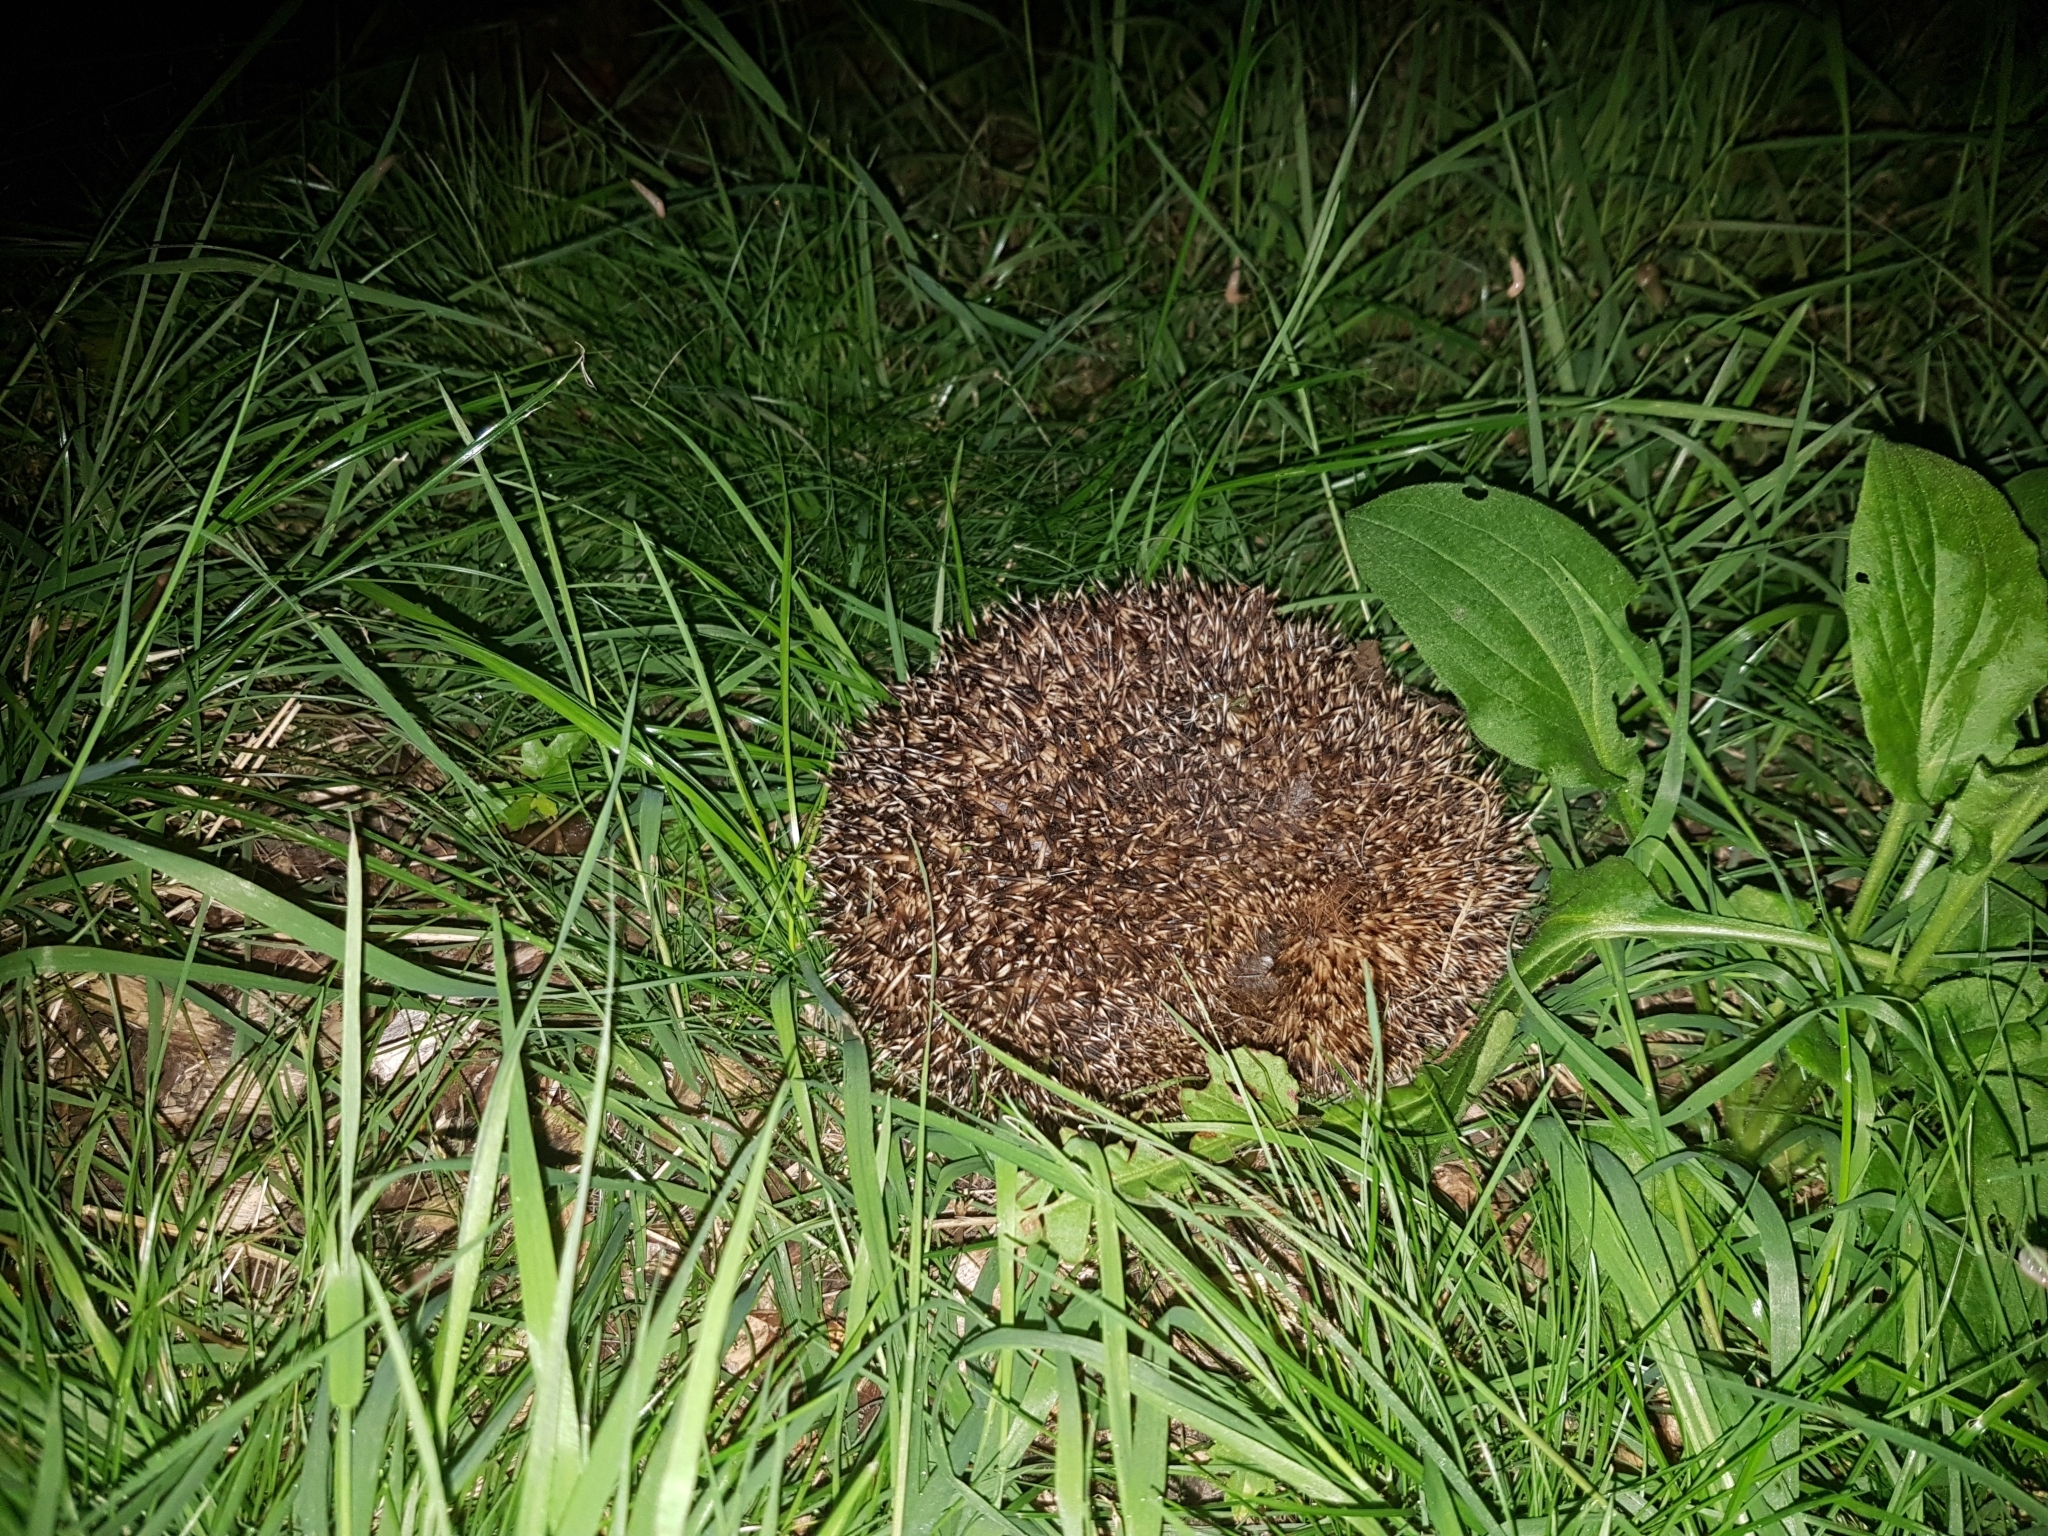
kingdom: Animalia
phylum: Chordata
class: Mammalia
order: Erinaceomorpha
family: Erinaceidae
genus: Erinaceus
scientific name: Erinaceus europaeus
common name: West european hedgehog
